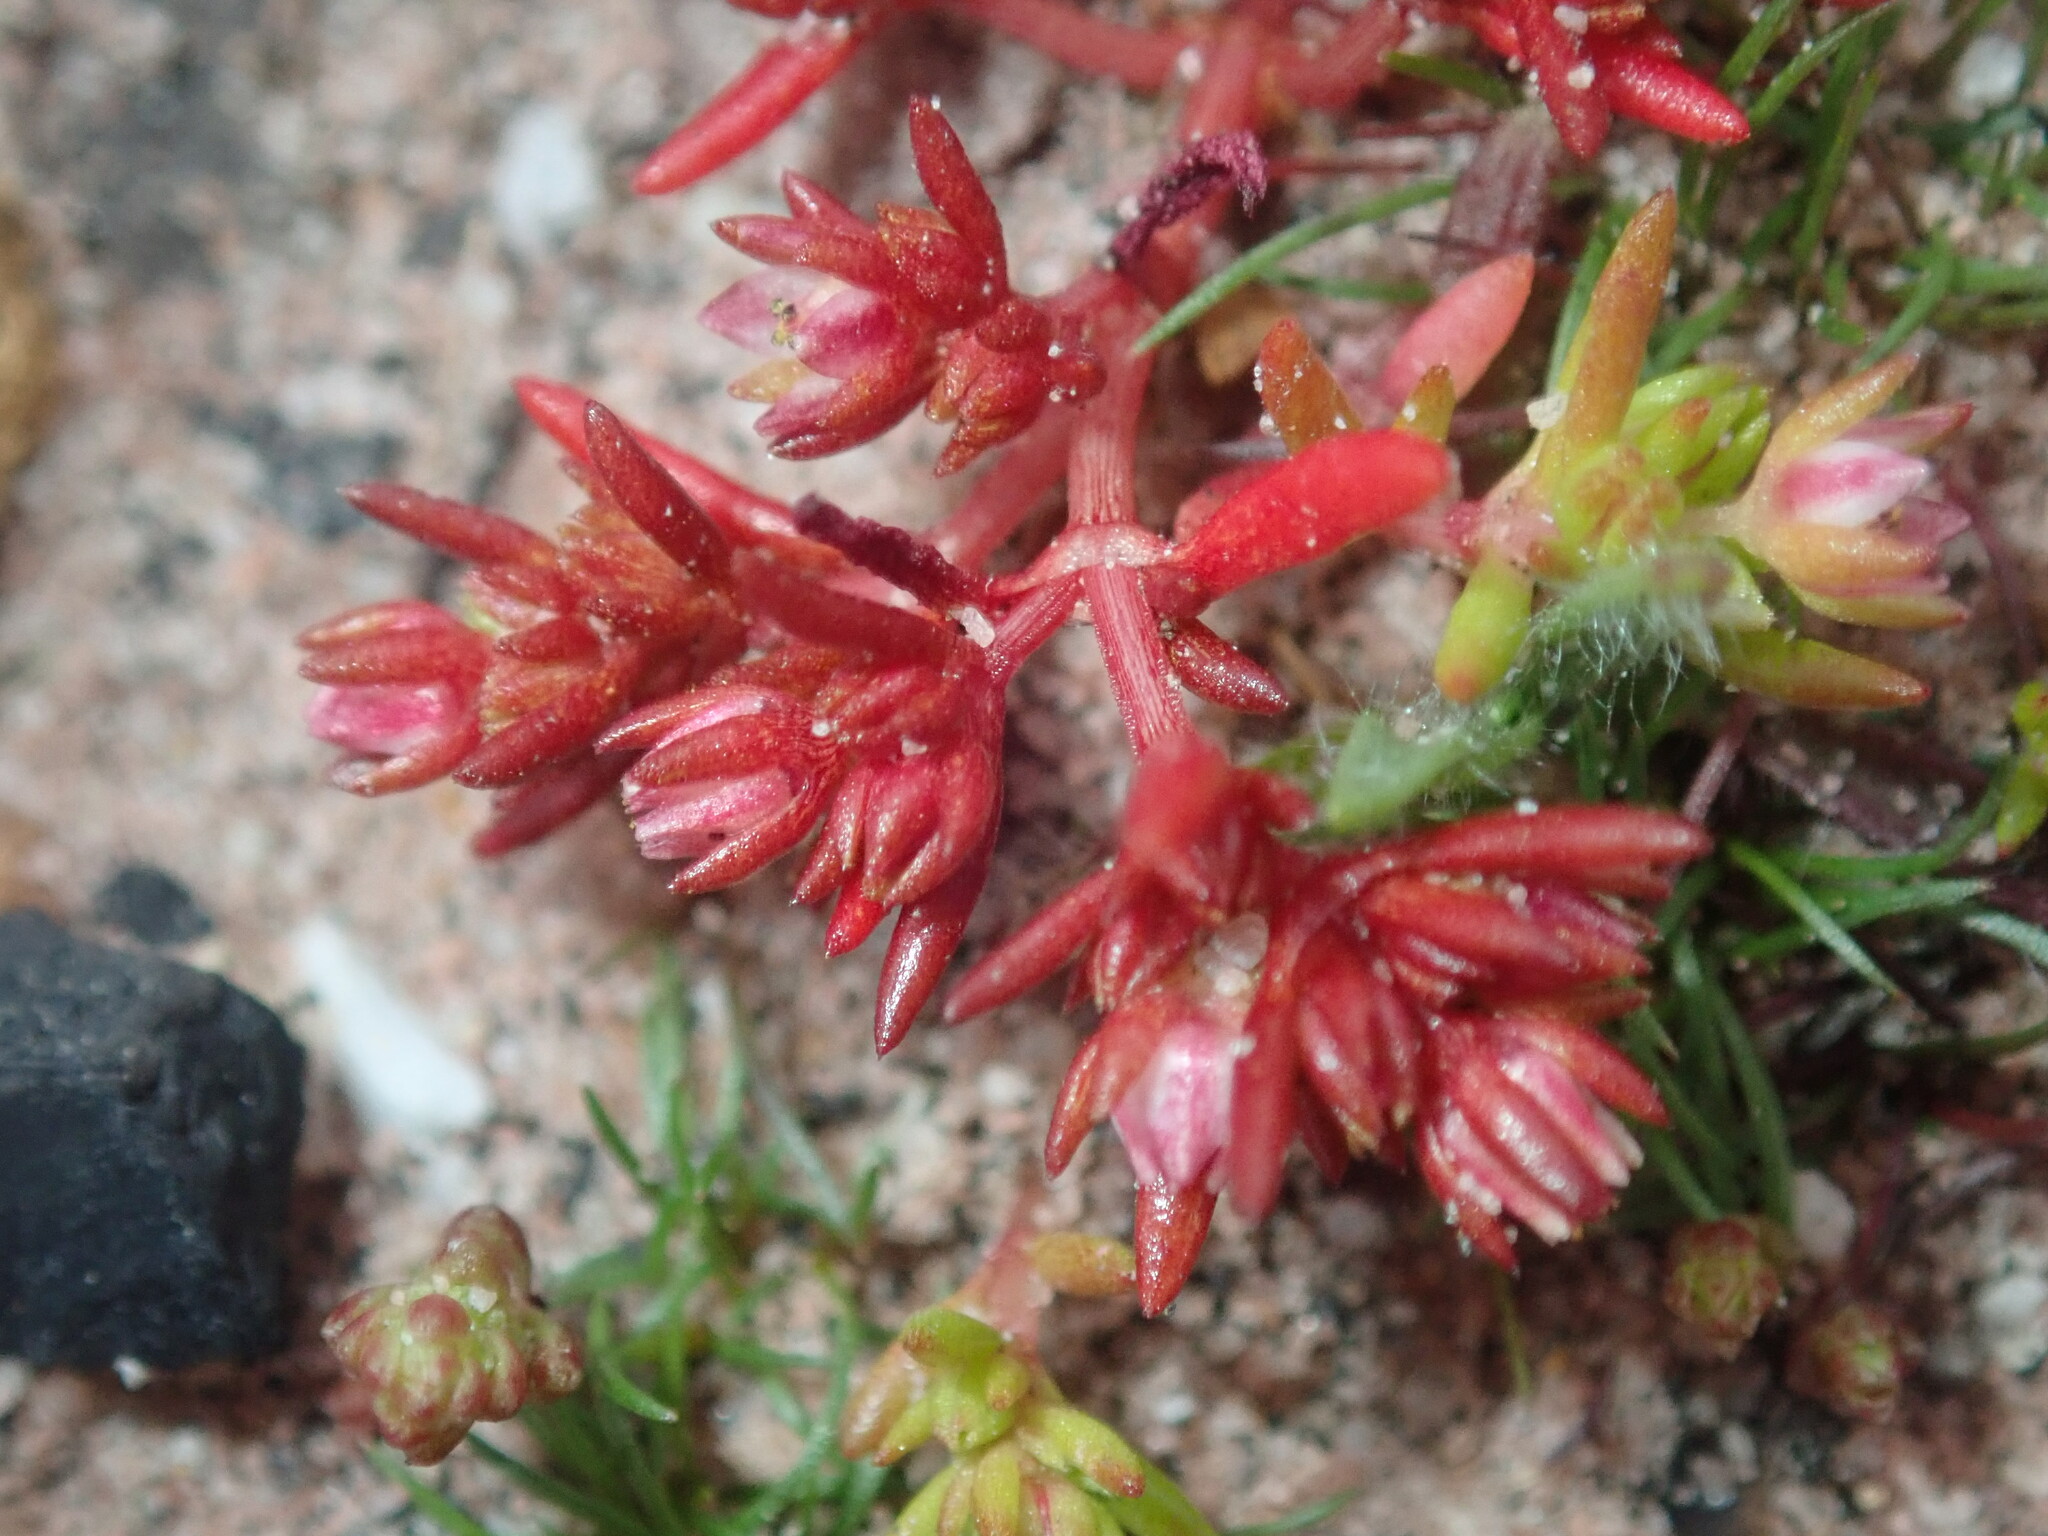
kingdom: Plantae
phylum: Tracheophyta
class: Magnoliopsida
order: Saxifragales
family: Crassulaceae
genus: Crassula
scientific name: Crassula decumbens
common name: Scilly pigmyweed
